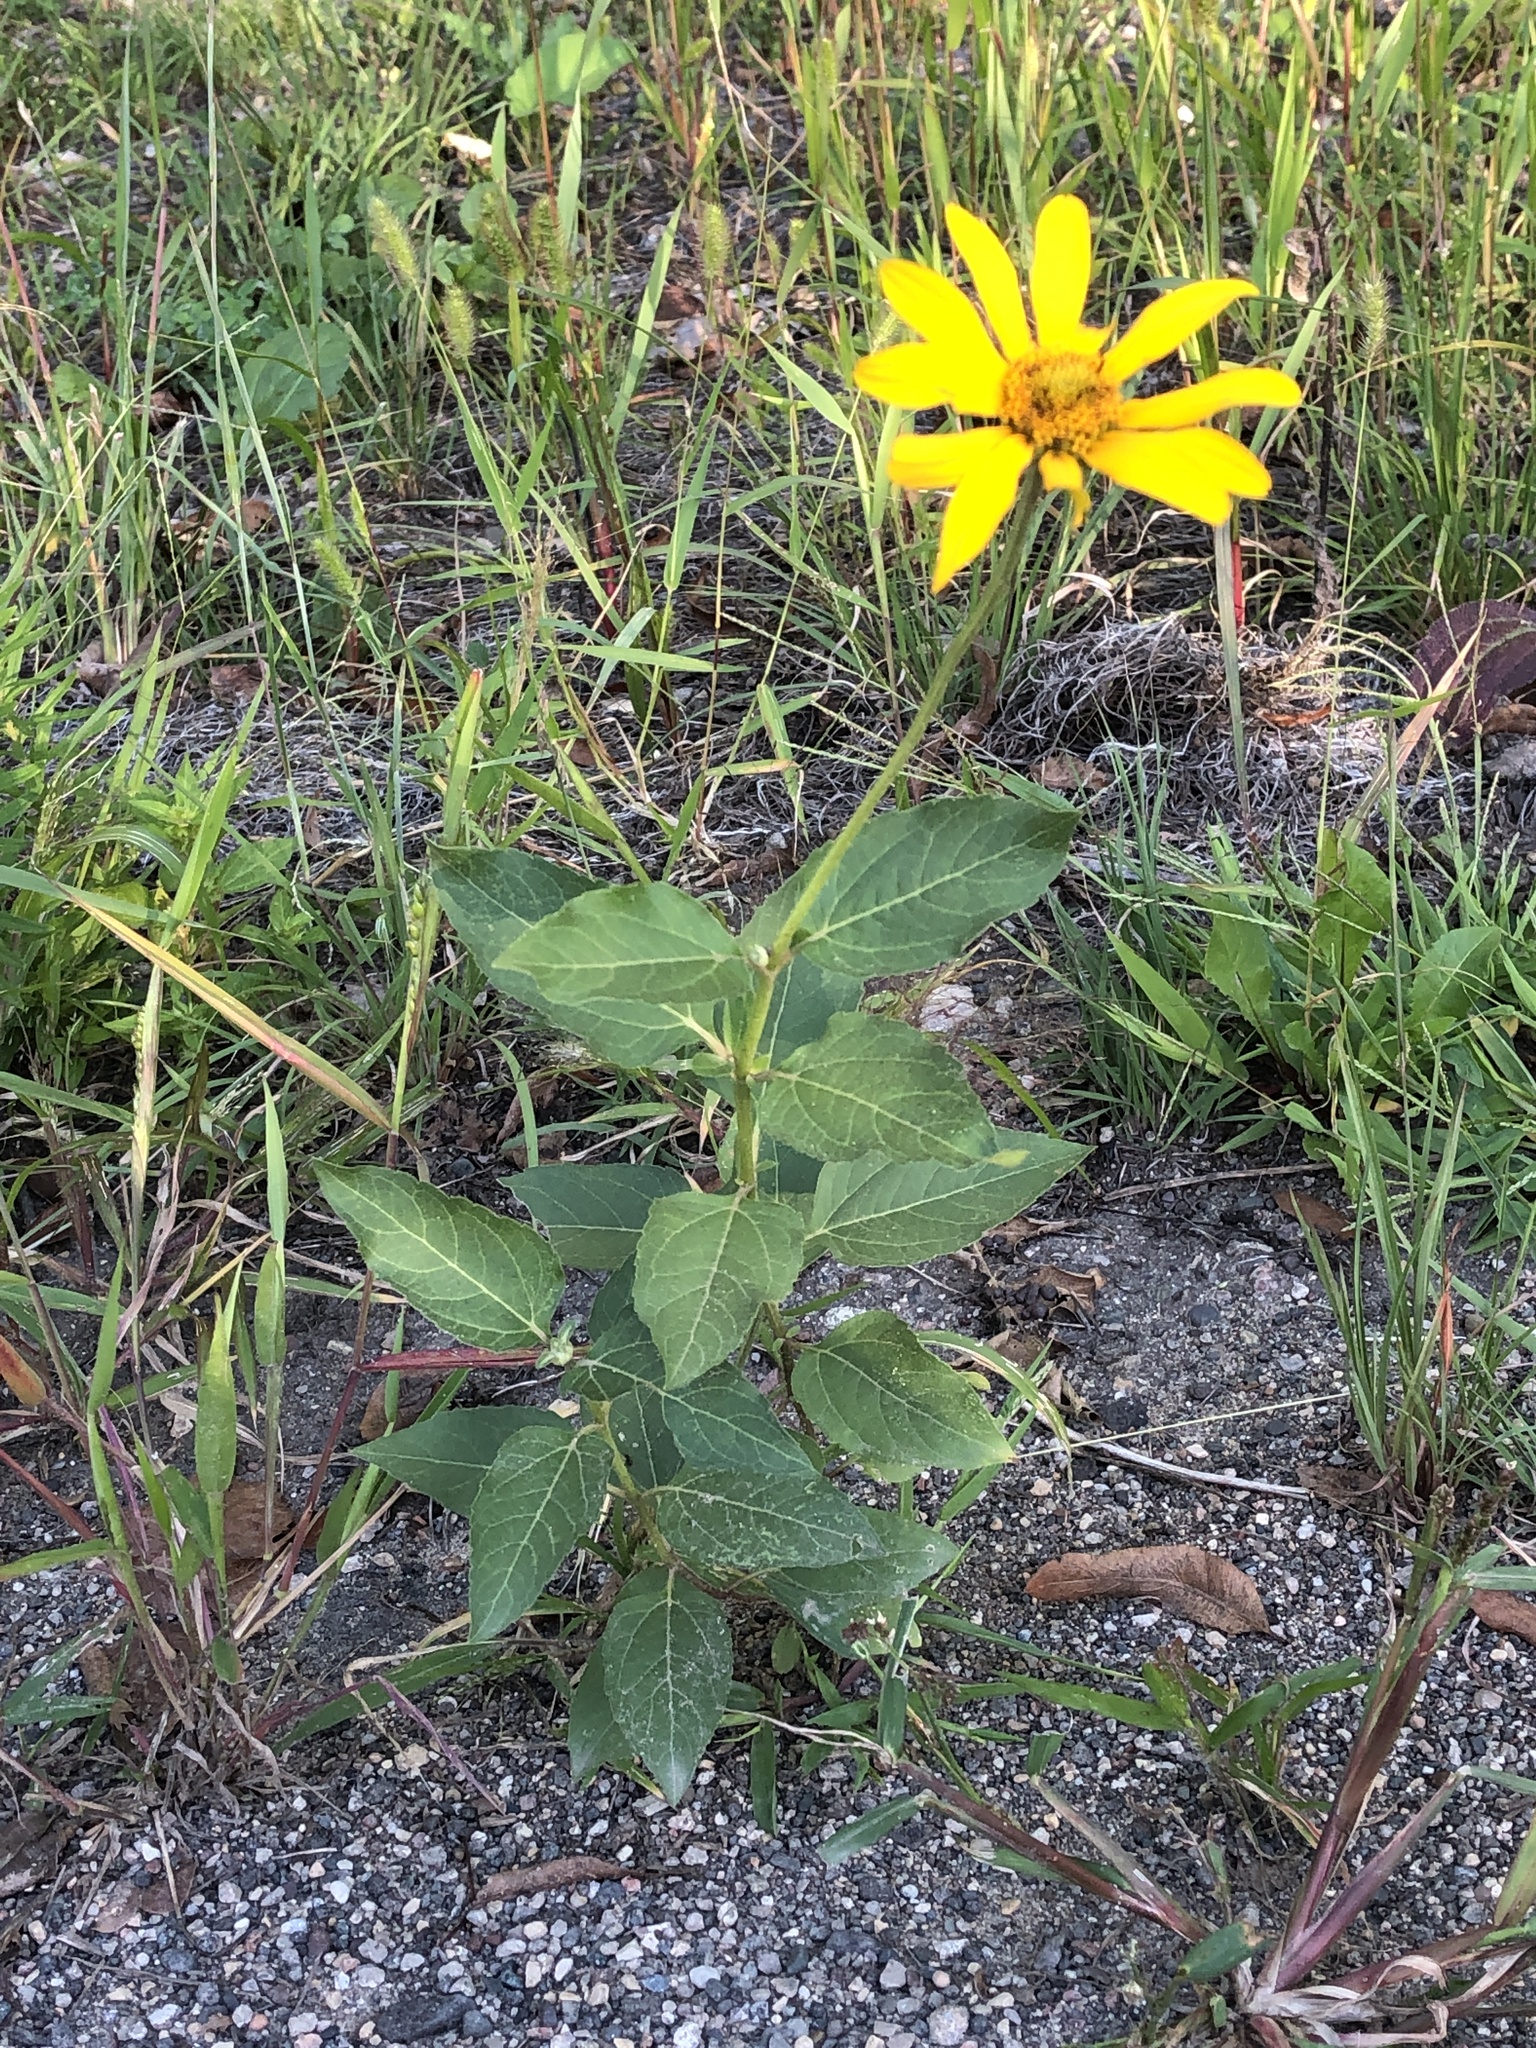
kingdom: Plantae
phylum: Tracheophyta
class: Magnoliopsida
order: Asterales
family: Asteraceae
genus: Heliopsis
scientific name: Heliopsis helianthoides
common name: False sunflower
